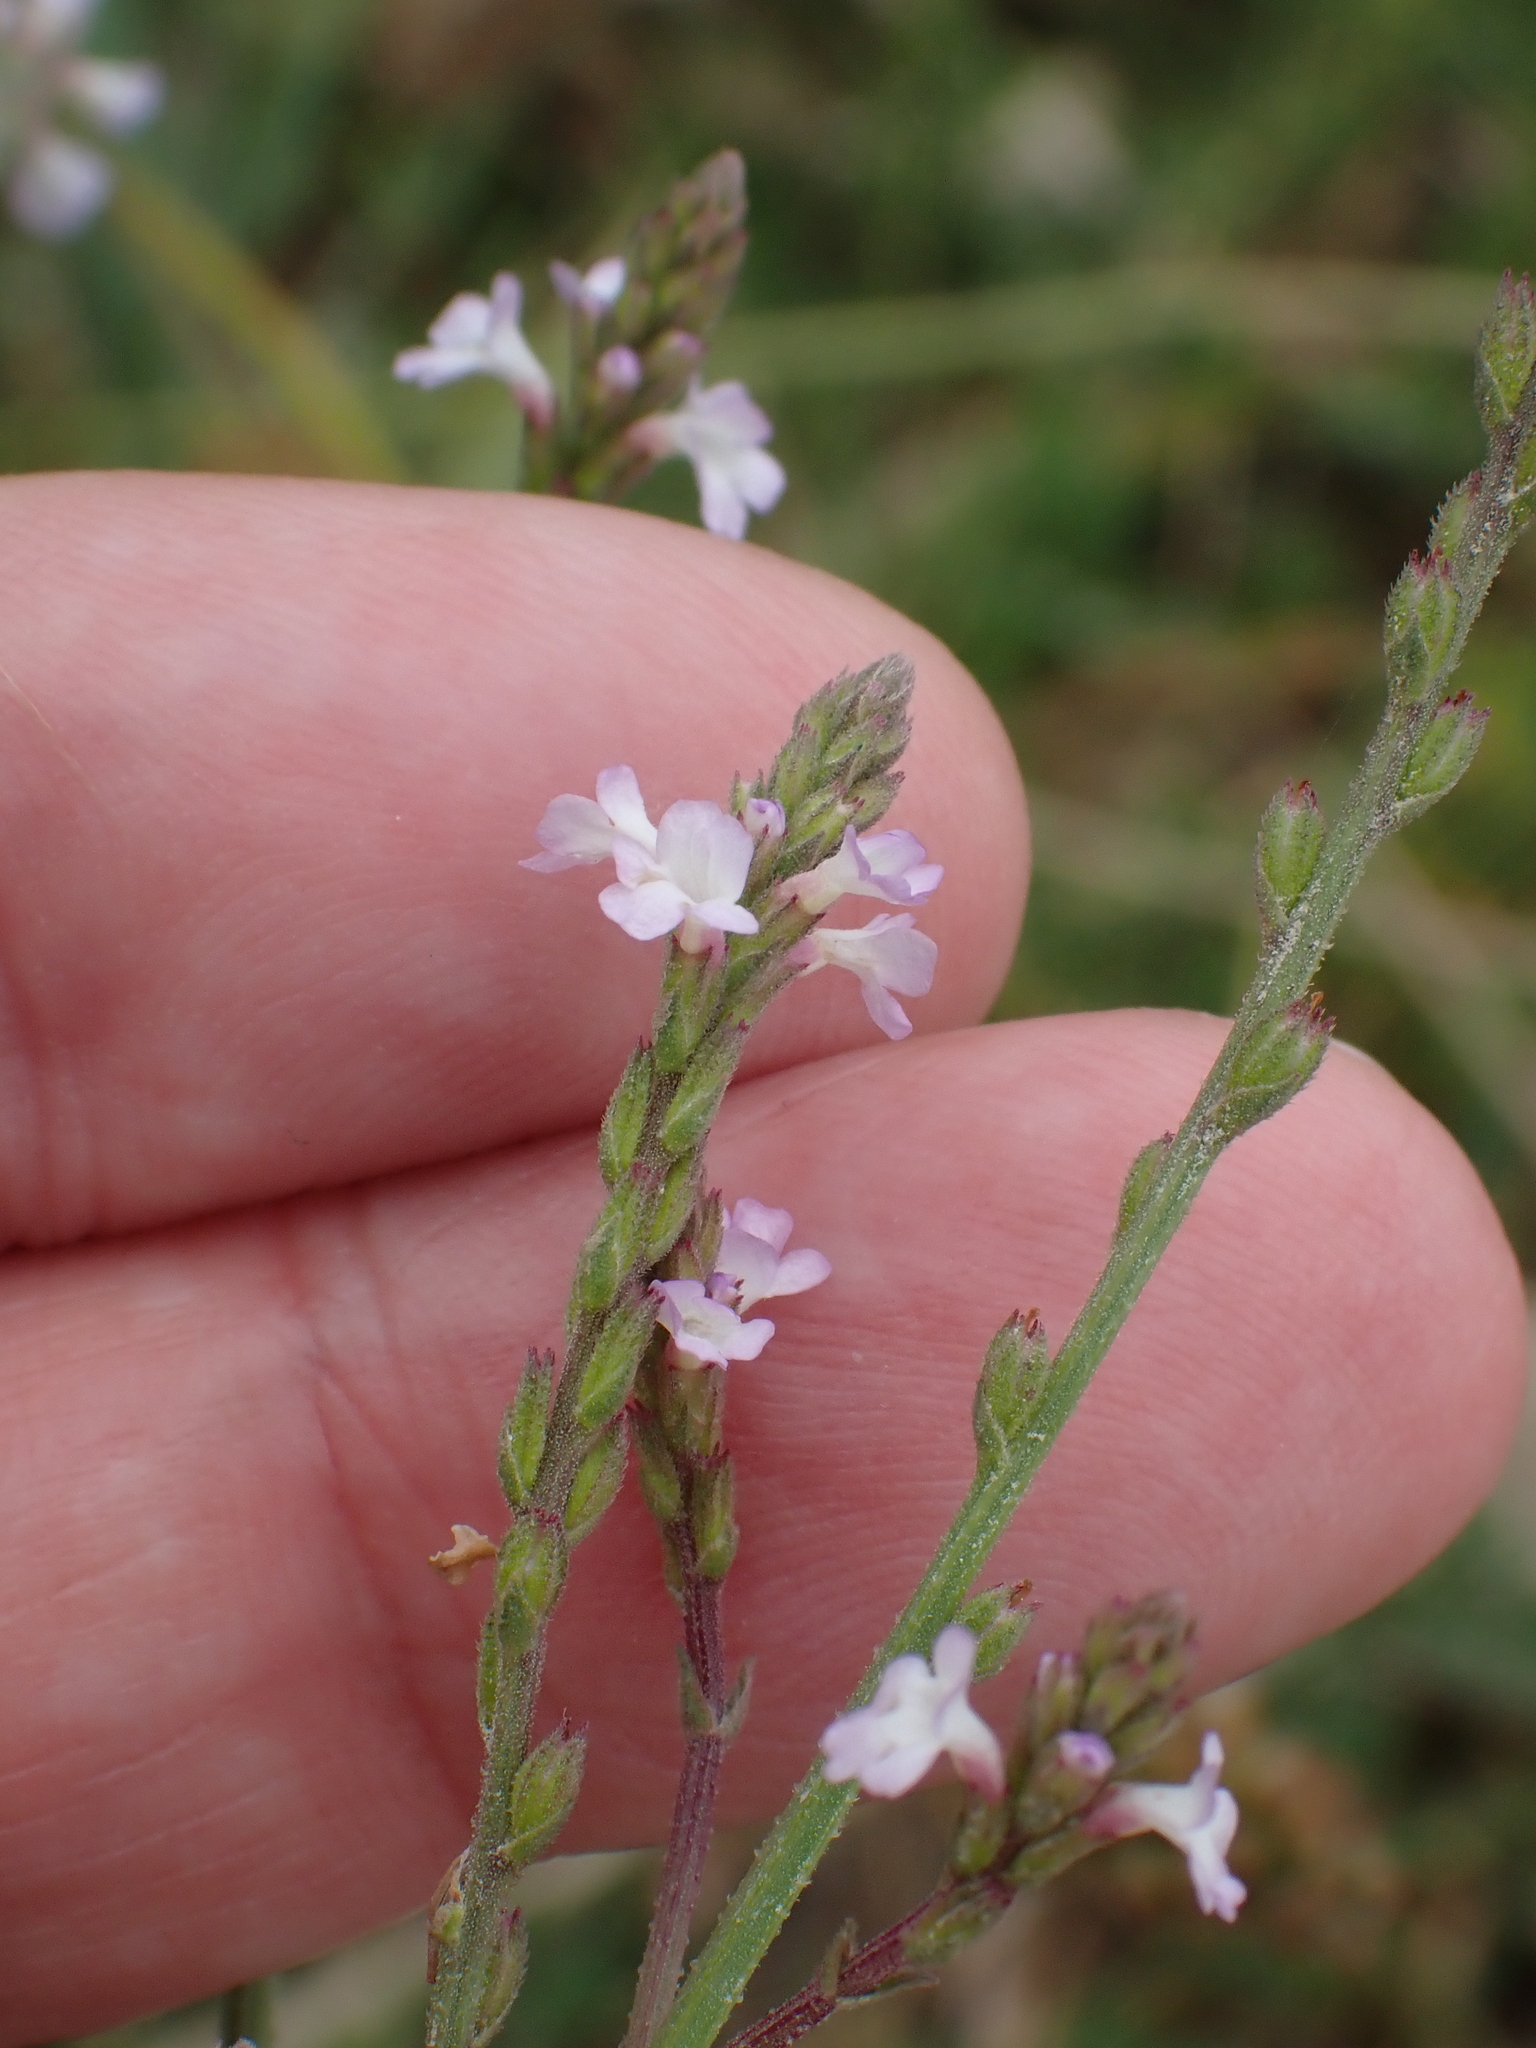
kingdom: Plantae
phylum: Tracheophyta
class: Magnoliopsida
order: Lamiales
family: Verbenaceae
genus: Verbena
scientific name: Verbena officinalis
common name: Vervain
